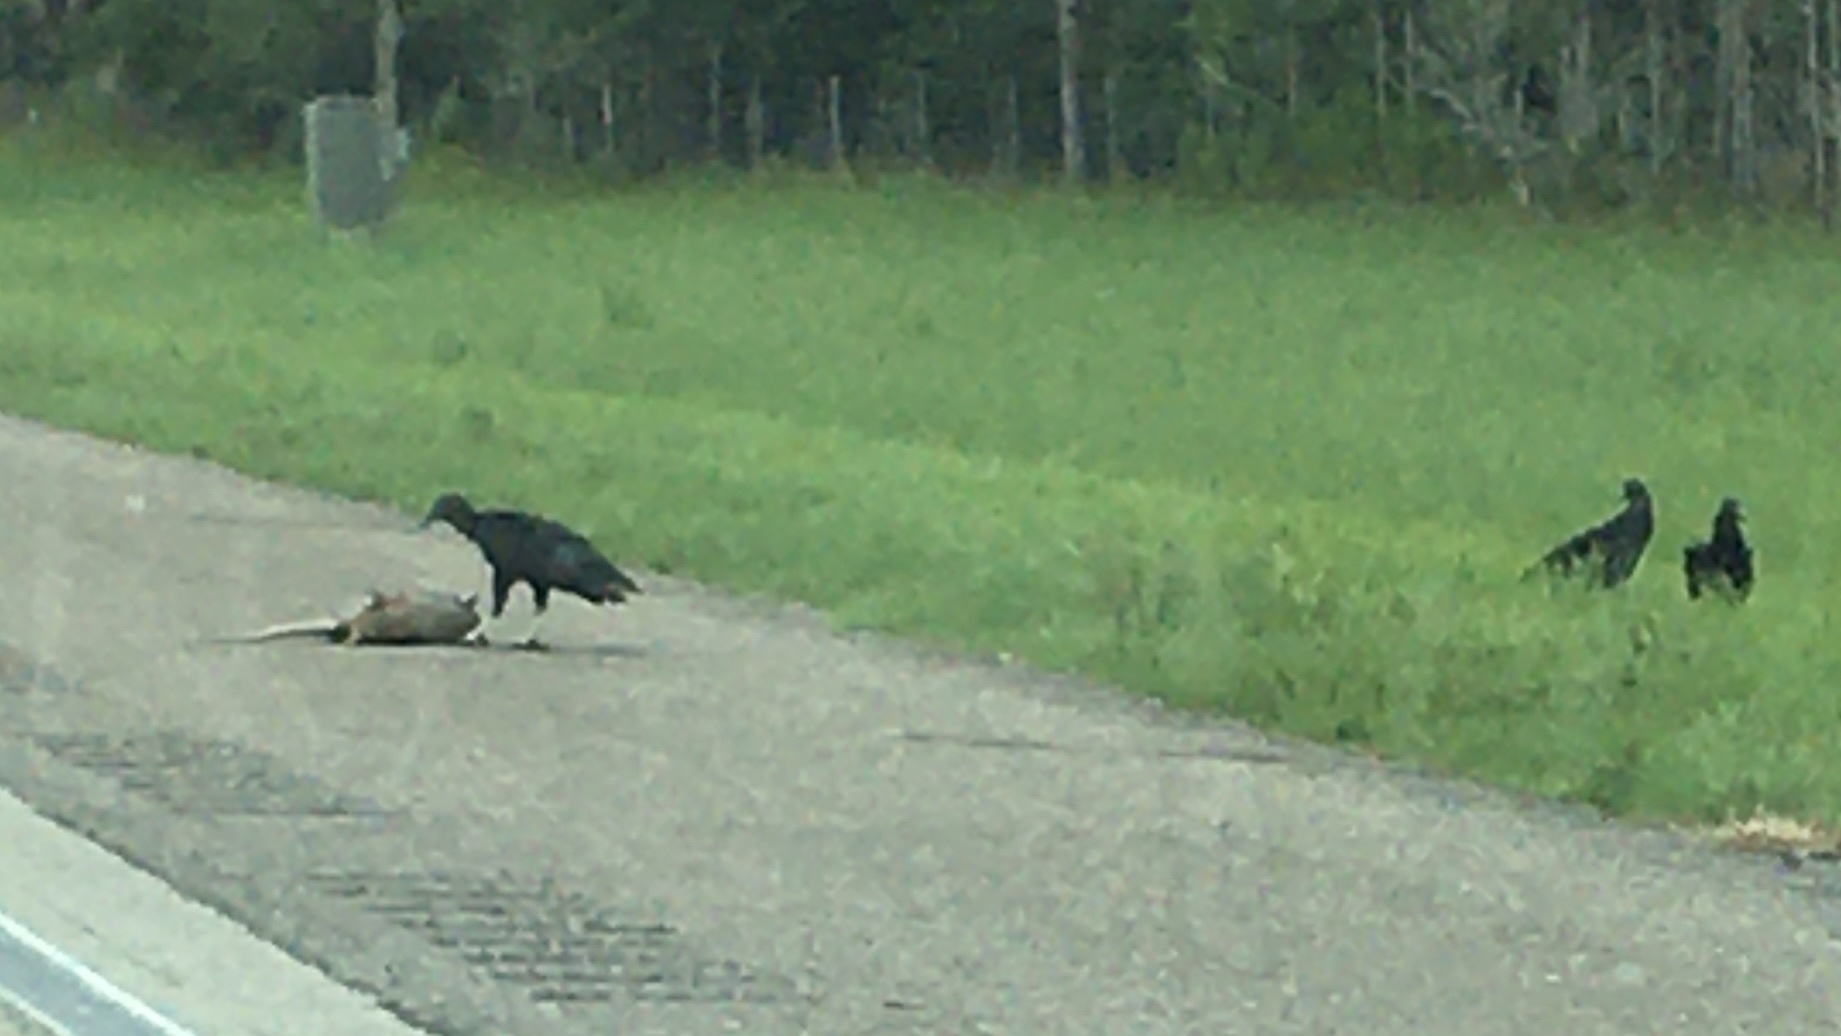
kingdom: Animalia
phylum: Chordata
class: Mammalia
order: Cingulata
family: Dasypodidae
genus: Dasypus
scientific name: Dasypus novemcinctus
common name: Nine-banded armadillo
